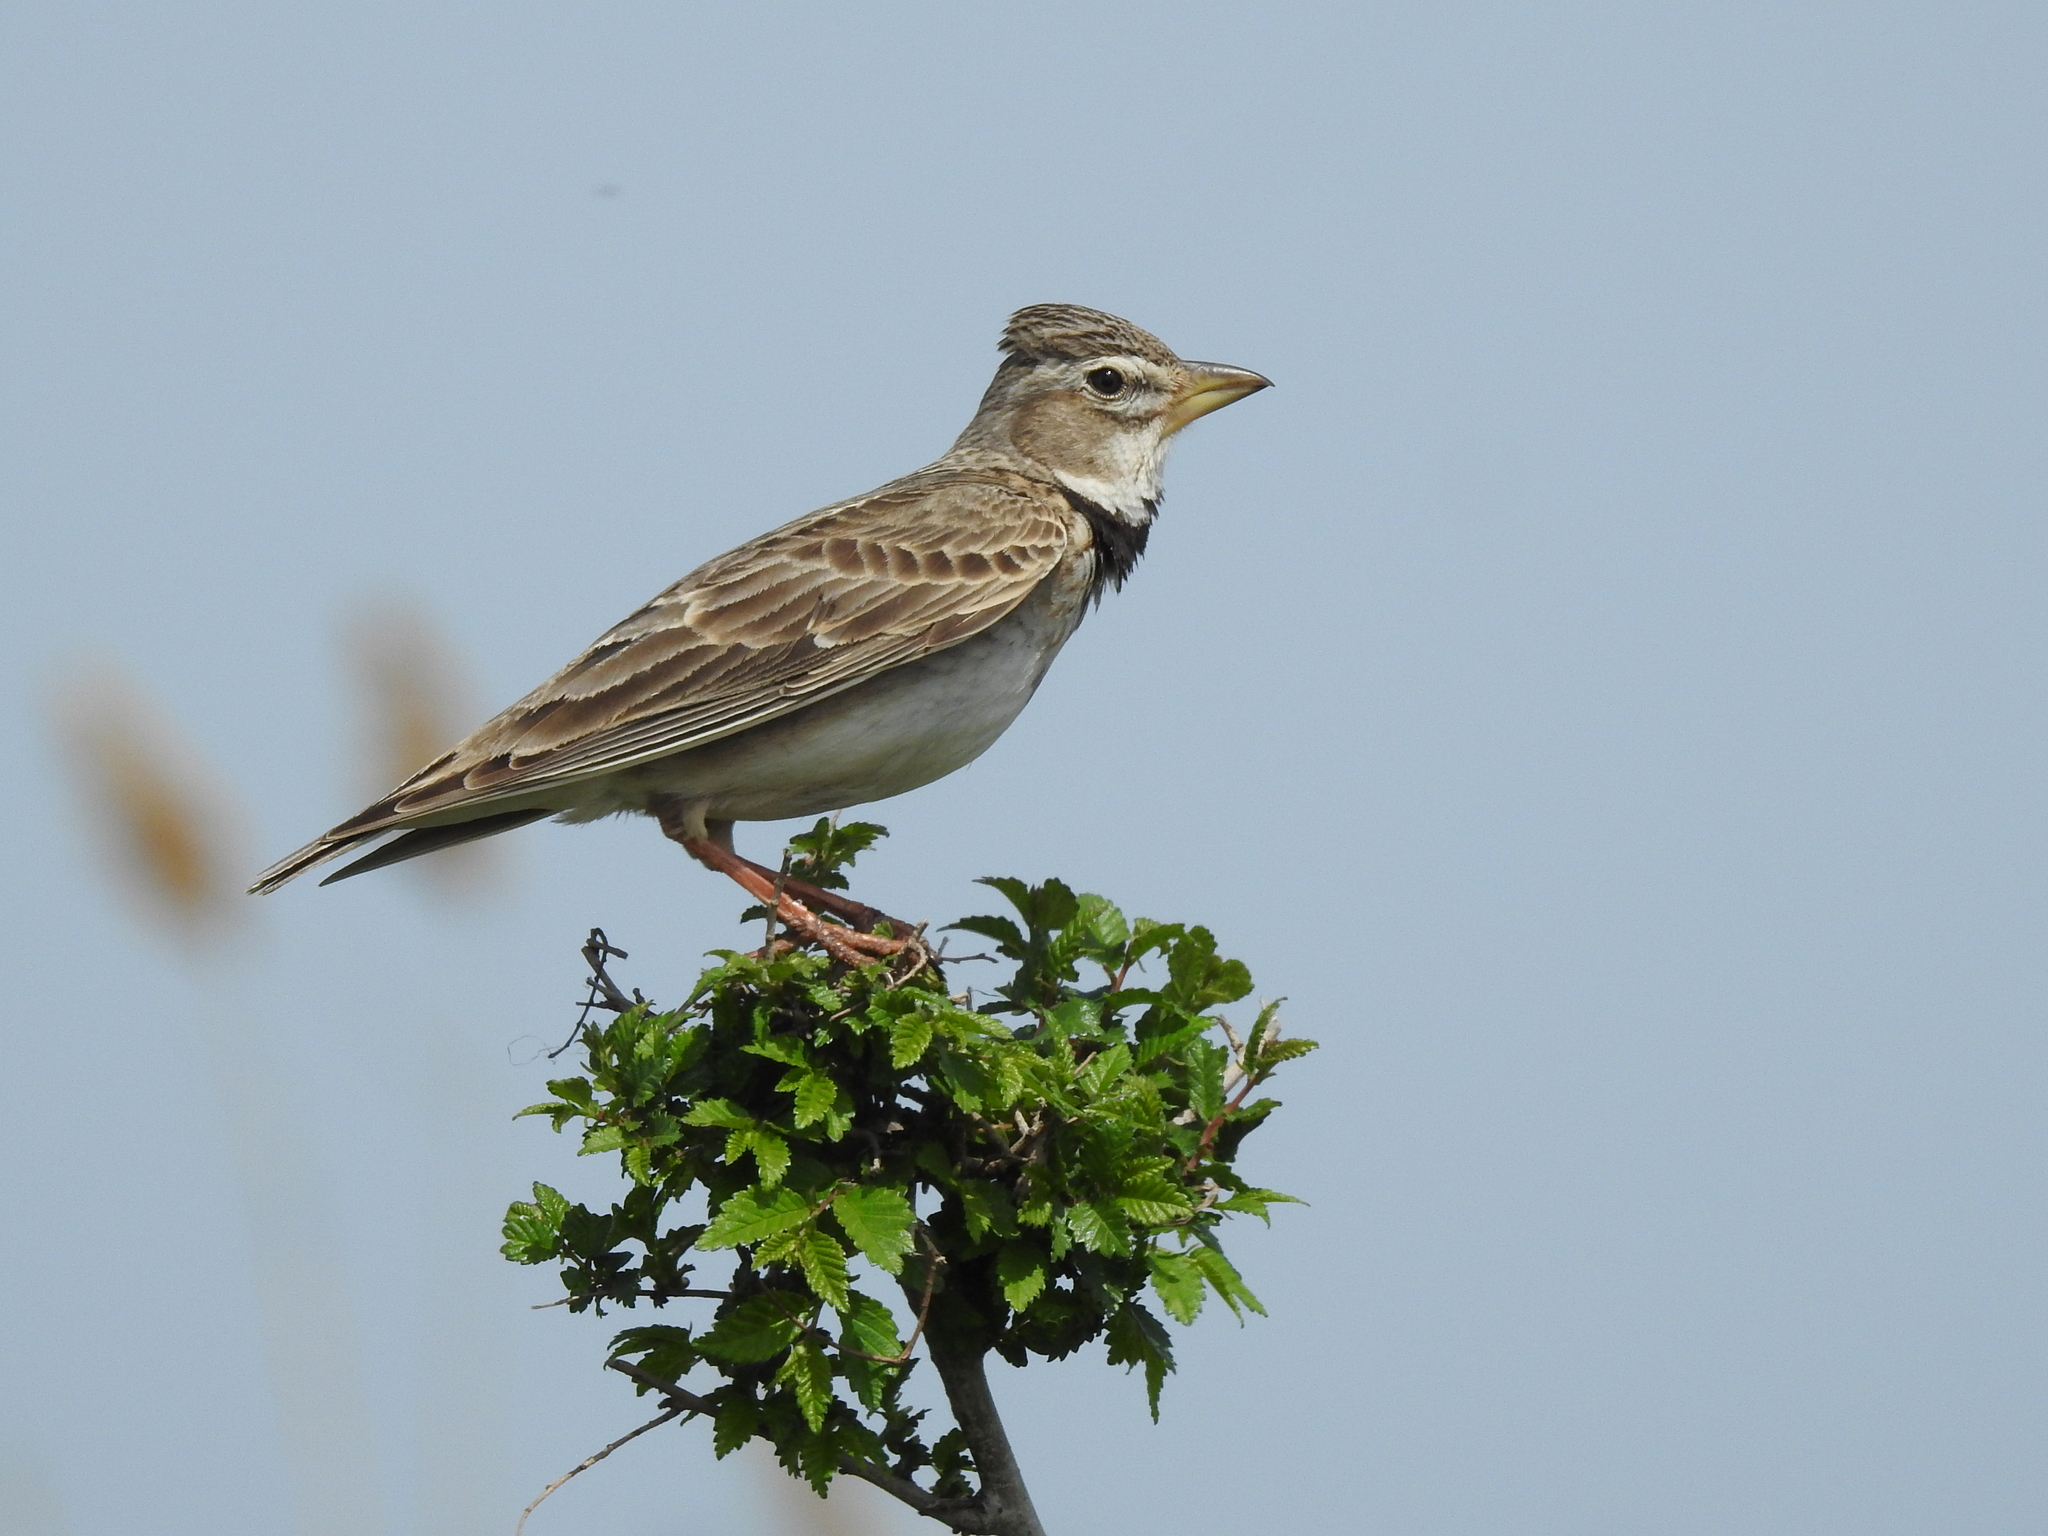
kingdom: Animalia
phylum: Chordata
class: Aves
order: Passeriformes
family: Alaudidae
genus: Melanocorypha
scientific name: Melanocorypha calandra
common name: Calandra lark
